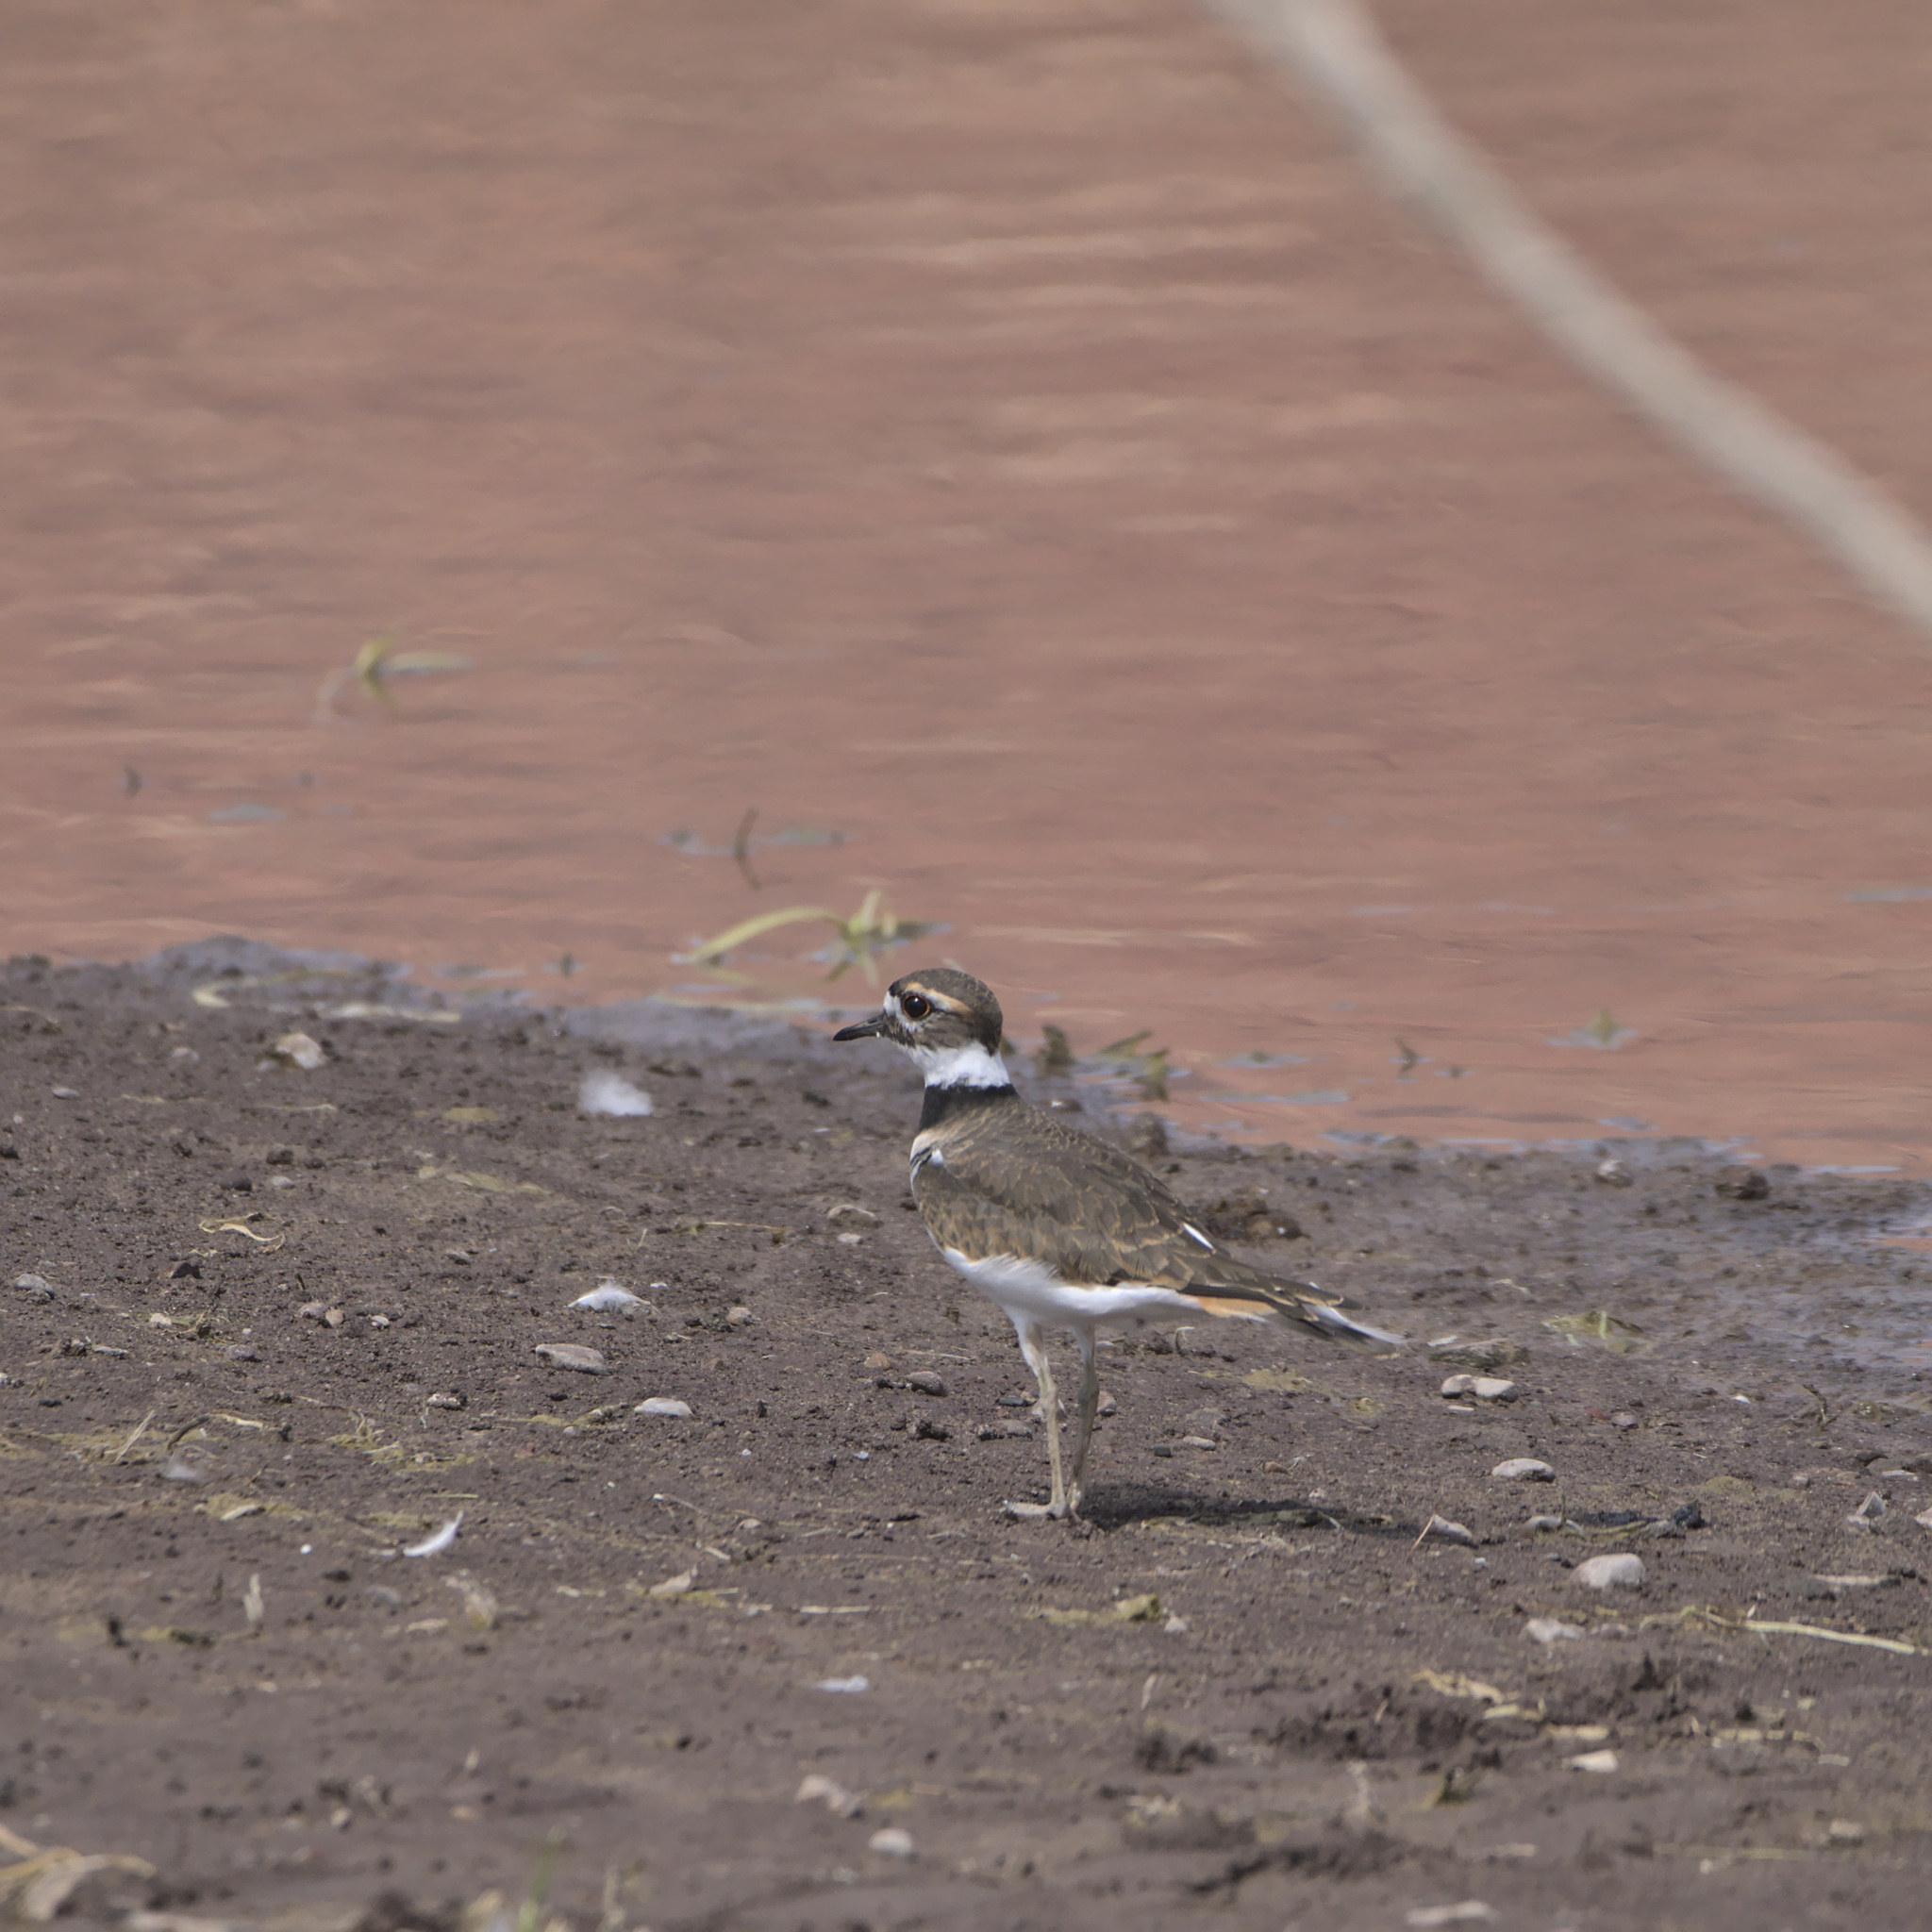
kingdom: Animalia
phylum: Chordata
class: Aves
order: Charadriiformes
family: Charadriidae
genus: Charadrius
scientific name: Charadrius vociferus
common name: Killdeer
